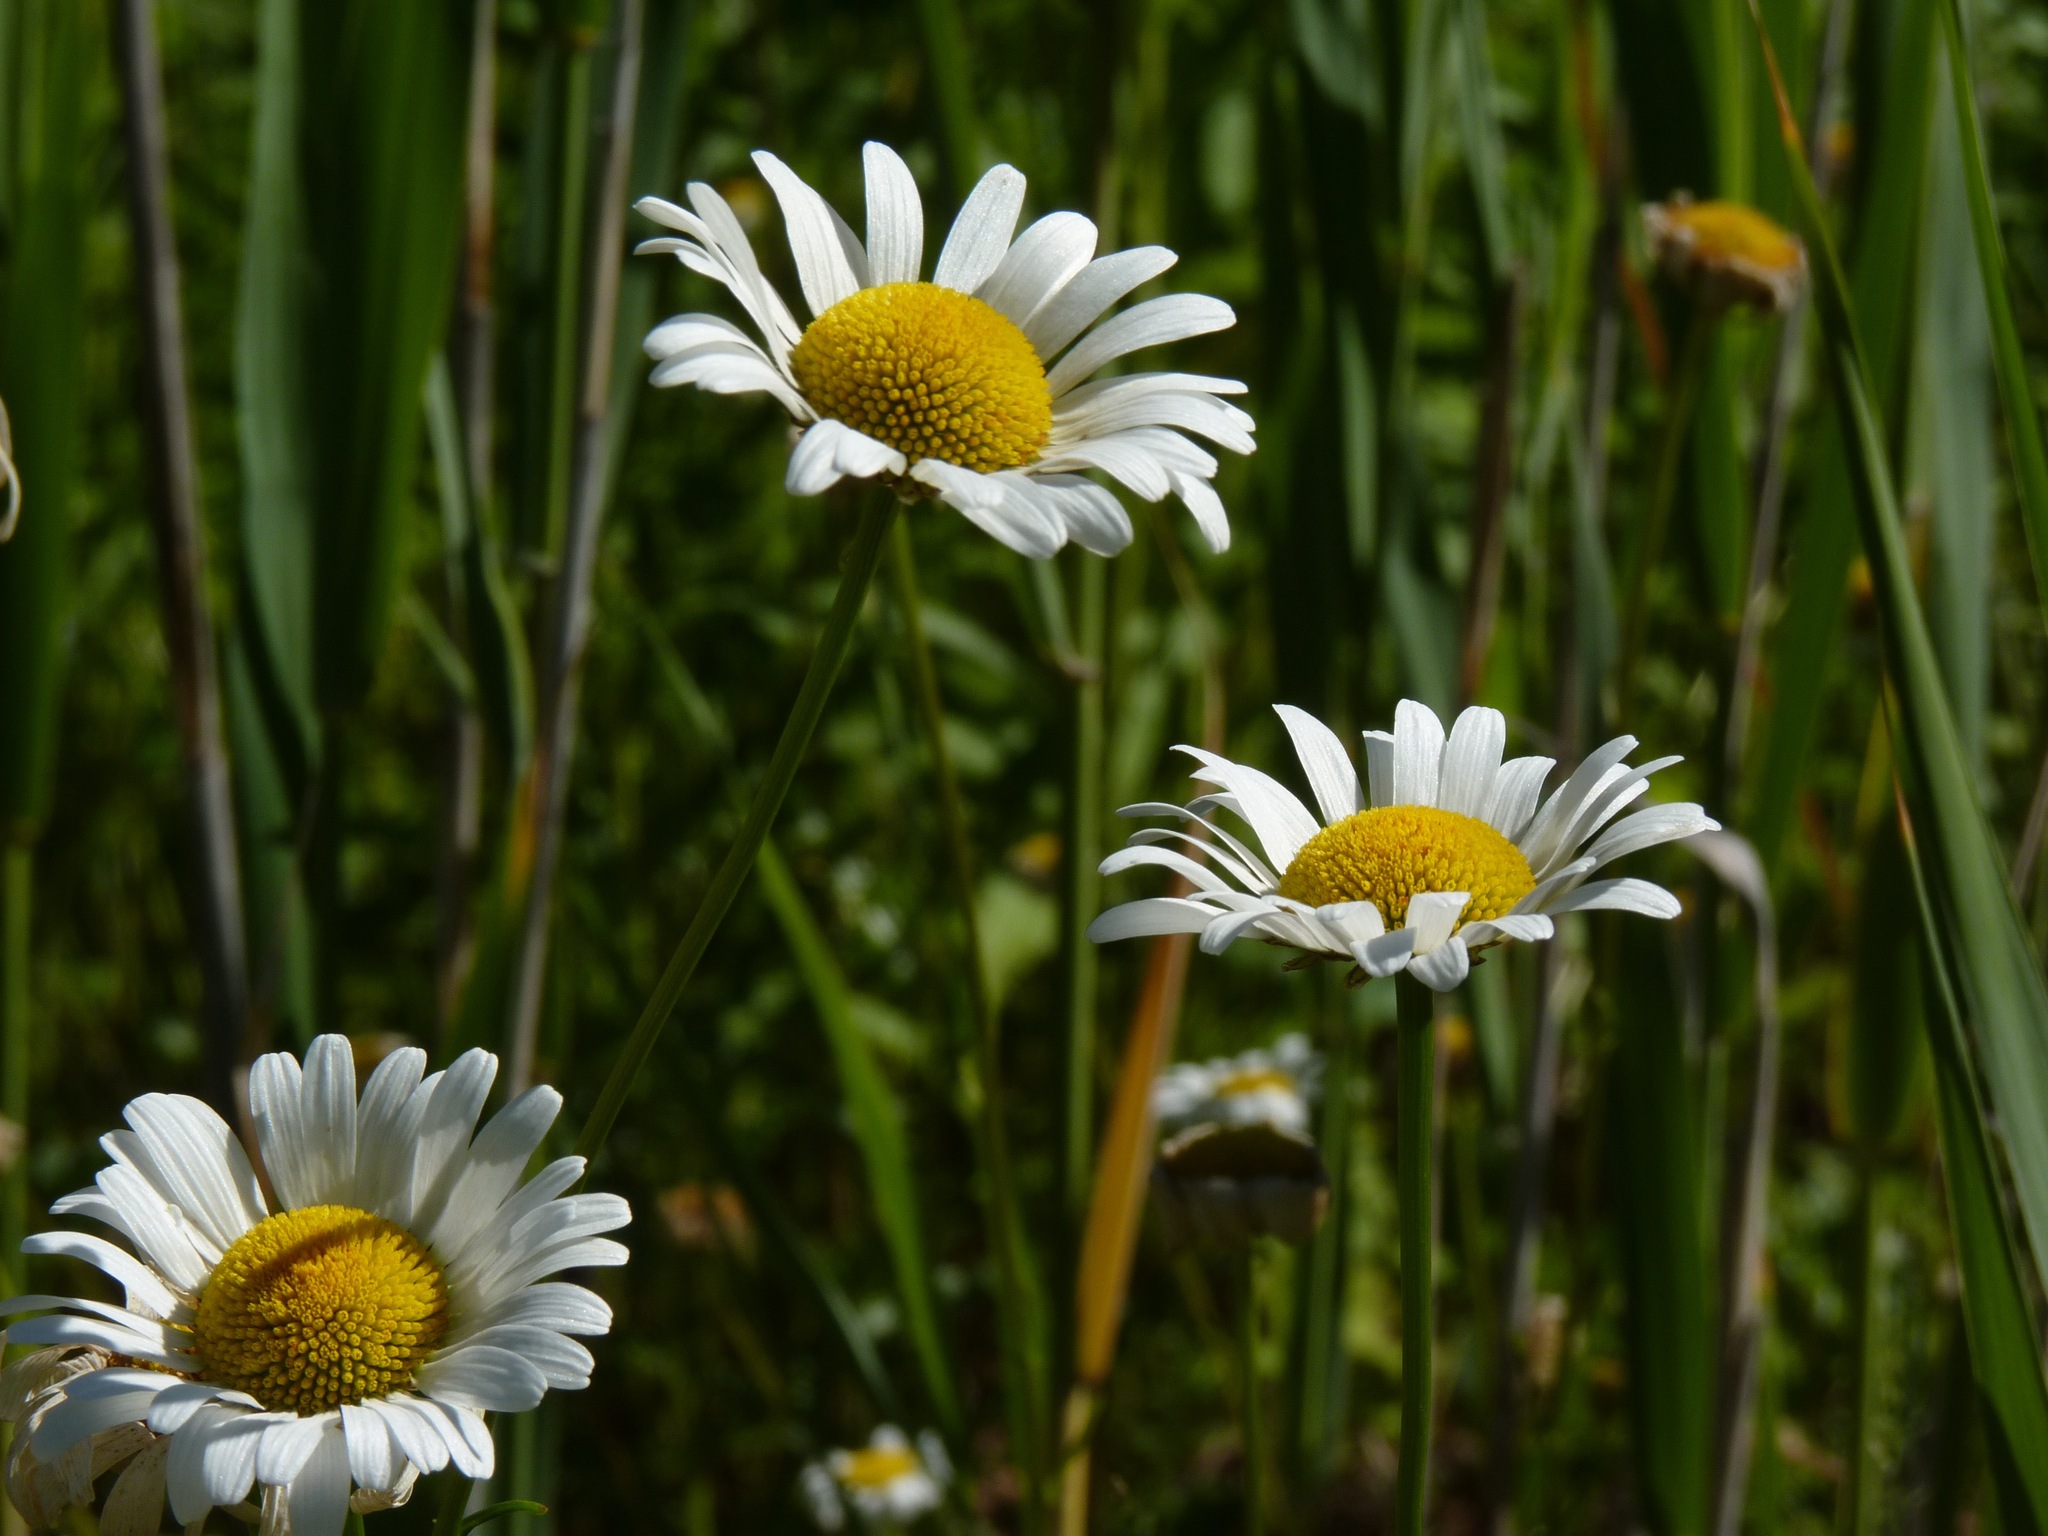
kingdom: Plantae
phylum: Tracheophyta
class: Magnoliopsida
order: Asterales
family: Asteraceae
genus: Leucanthemum
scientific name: Leucanthemum vulgare
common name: Oxeye daisy
